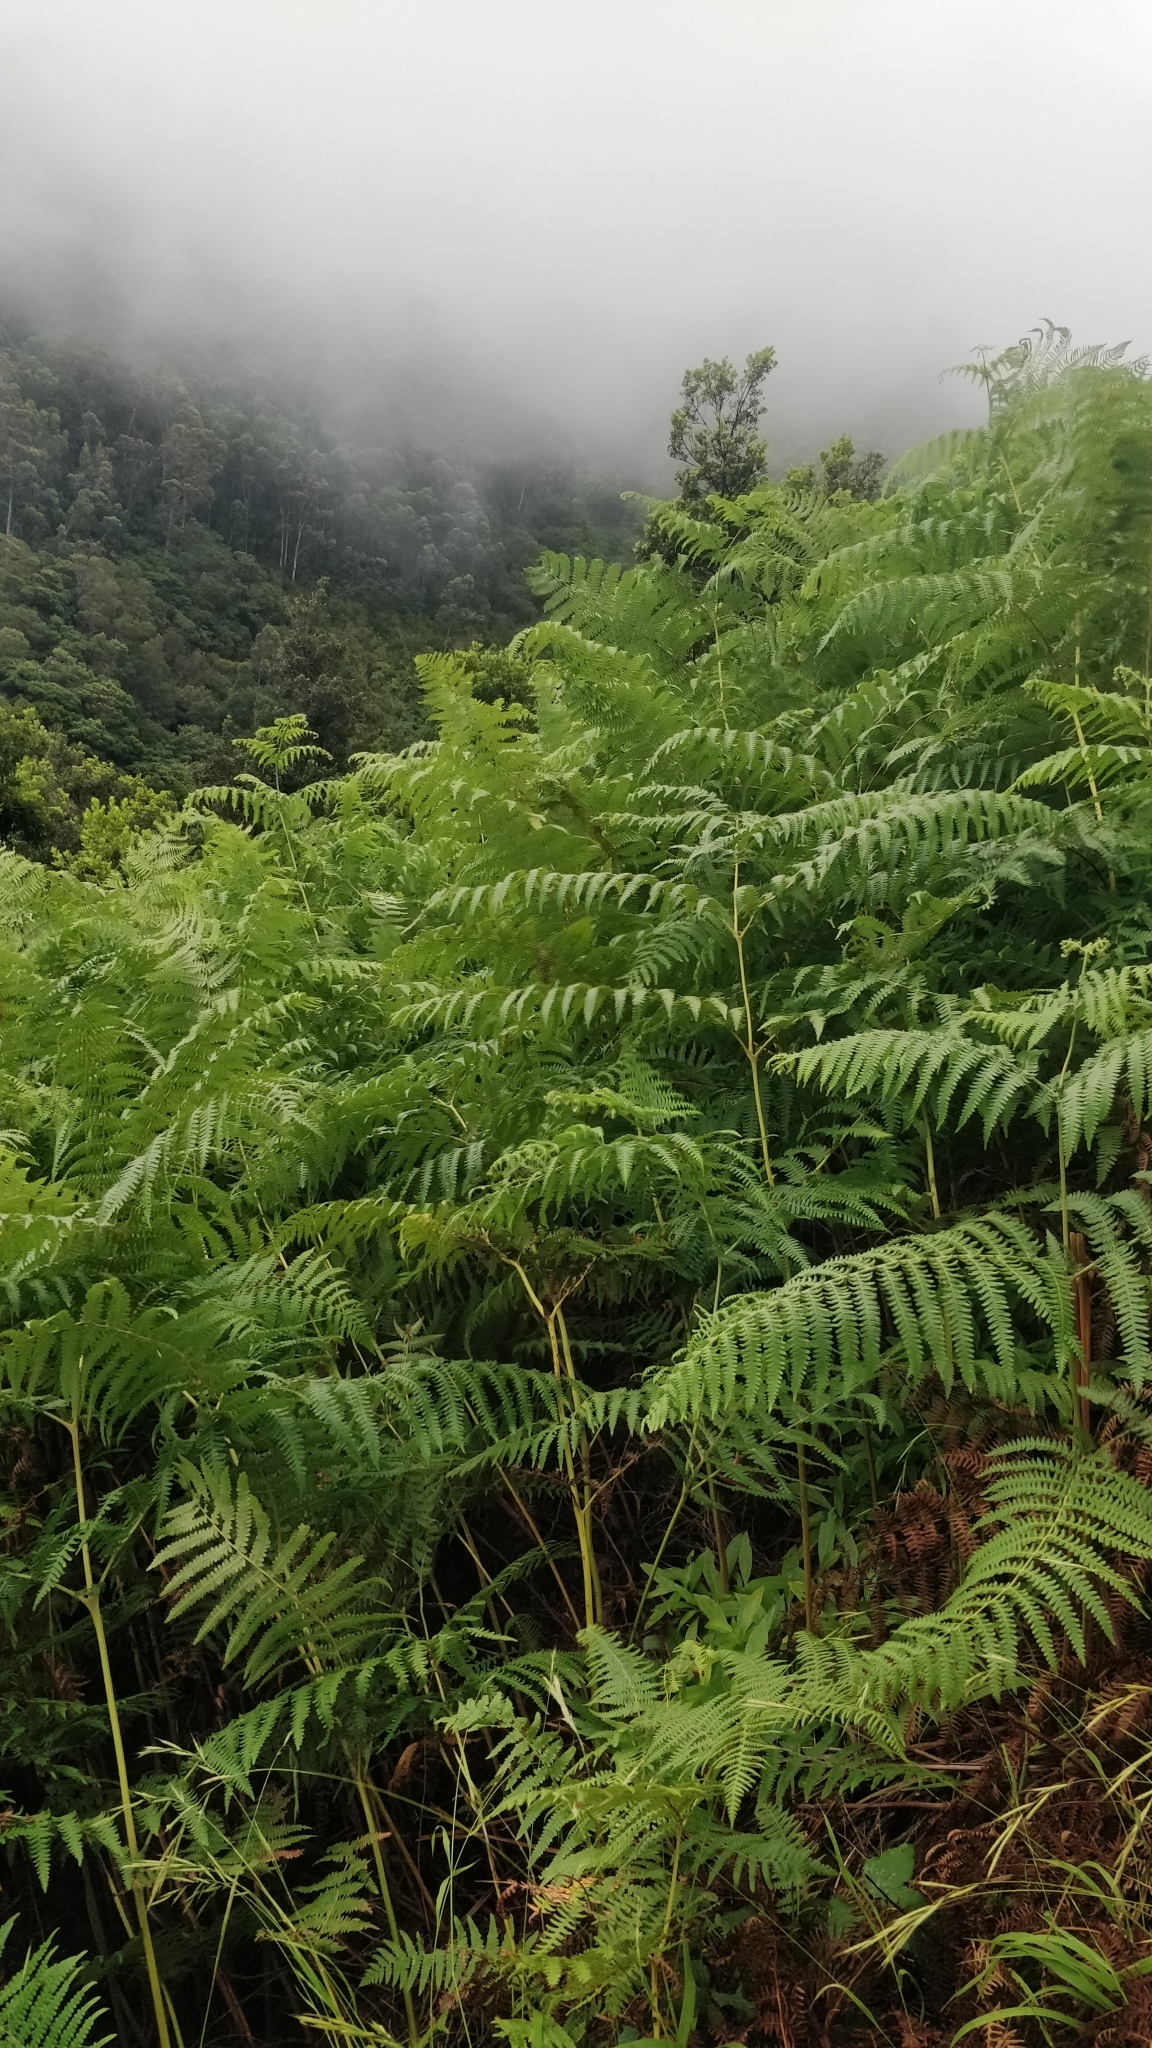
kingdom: Plantae
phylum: Tracheophyta
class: Polypodiopsida
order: Polypodiales
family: Dennstaedtiaceae
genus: Pteridium
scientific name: Pteridium aquilinum
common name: Bracken
